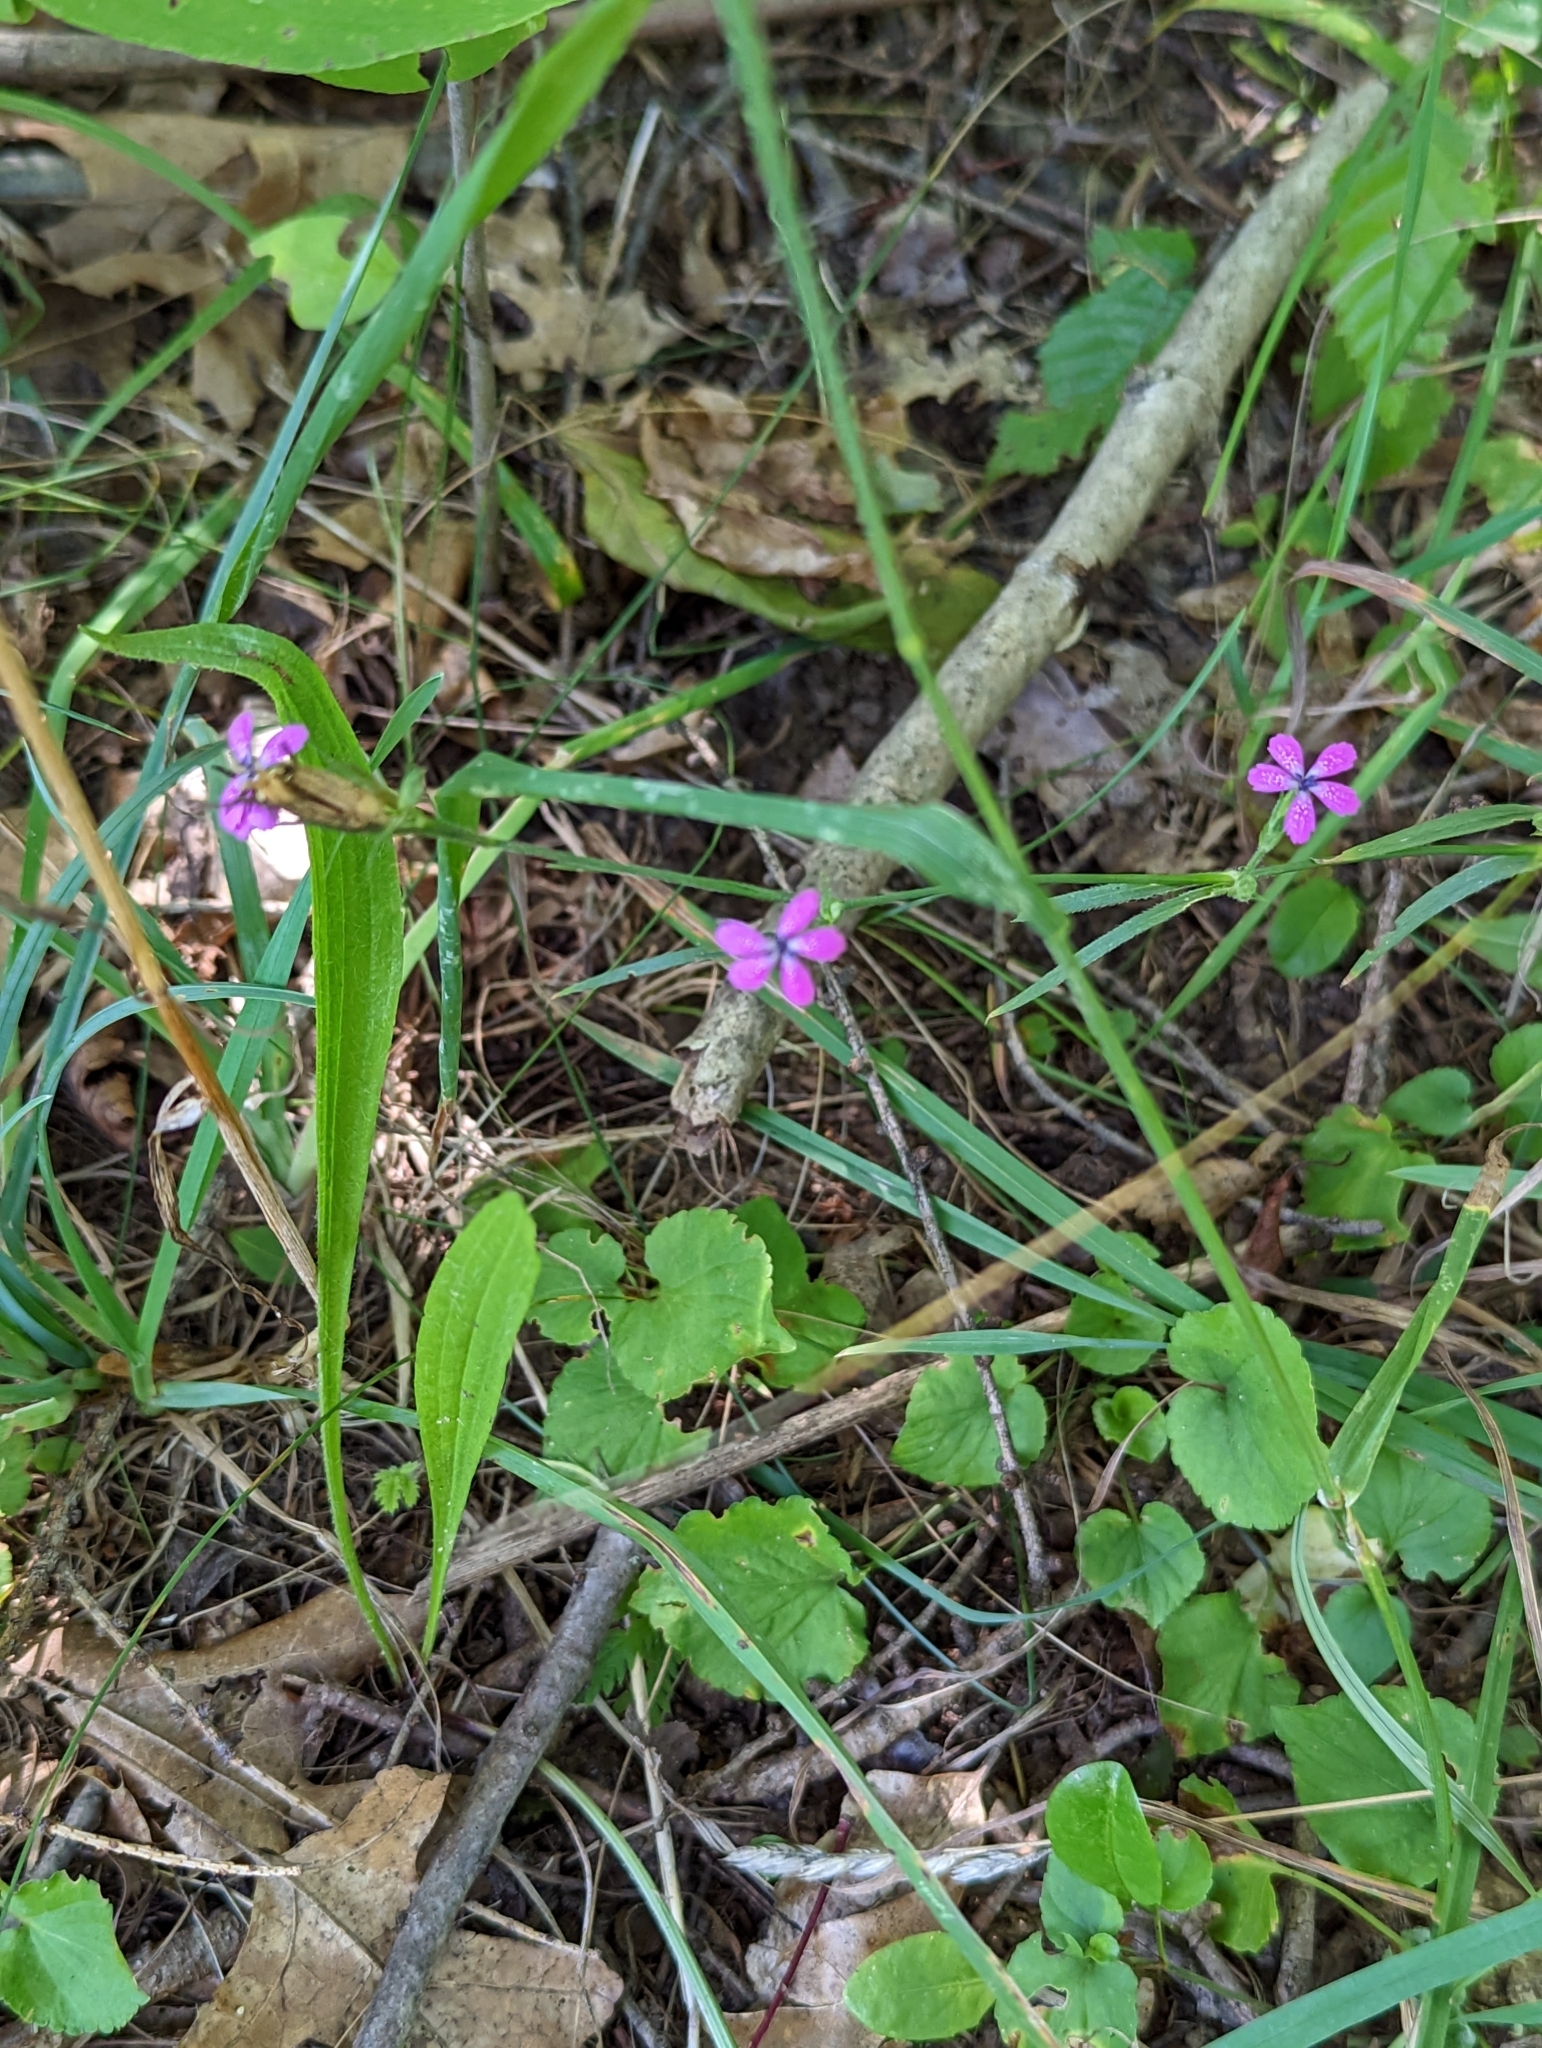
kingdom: Plantae
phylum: Tracheophyta
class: Magnoliopsida
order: Caryophyllales
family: Caryophyllaceae
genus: Dianthus
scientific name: Dianthus armeria
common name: Deptford pink
